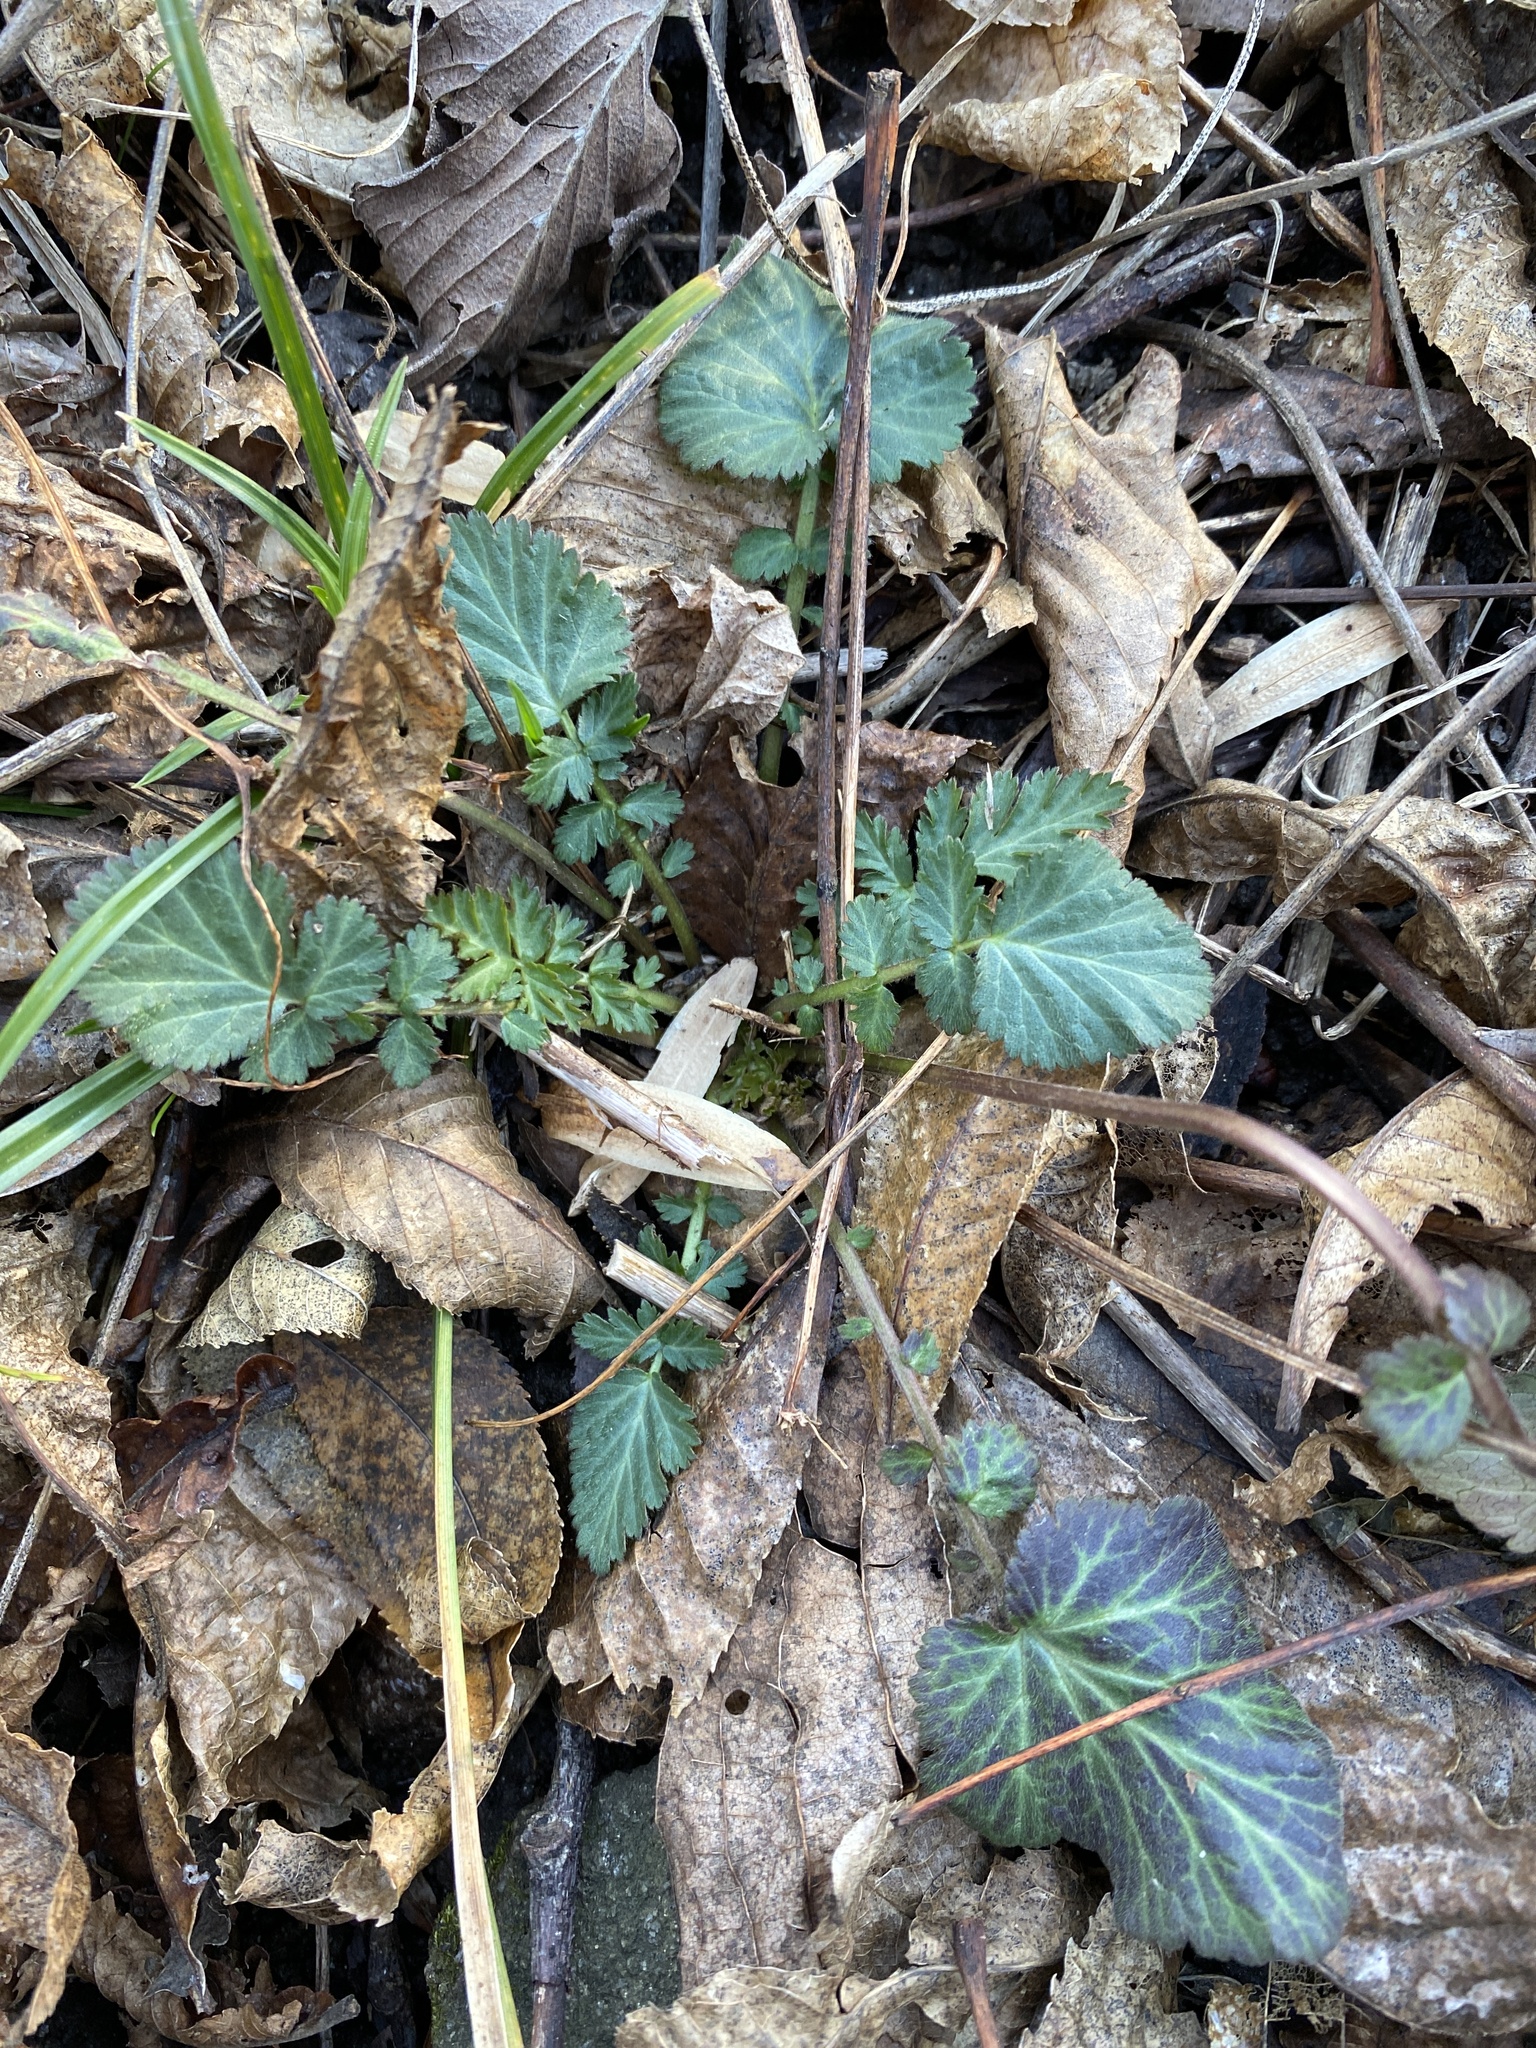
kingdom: Plantae
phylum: Tracheophyta
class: Magnoliopsida
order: Rosales
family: Rosaceae
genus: Geum
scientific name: Geum canadense
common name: White avens
